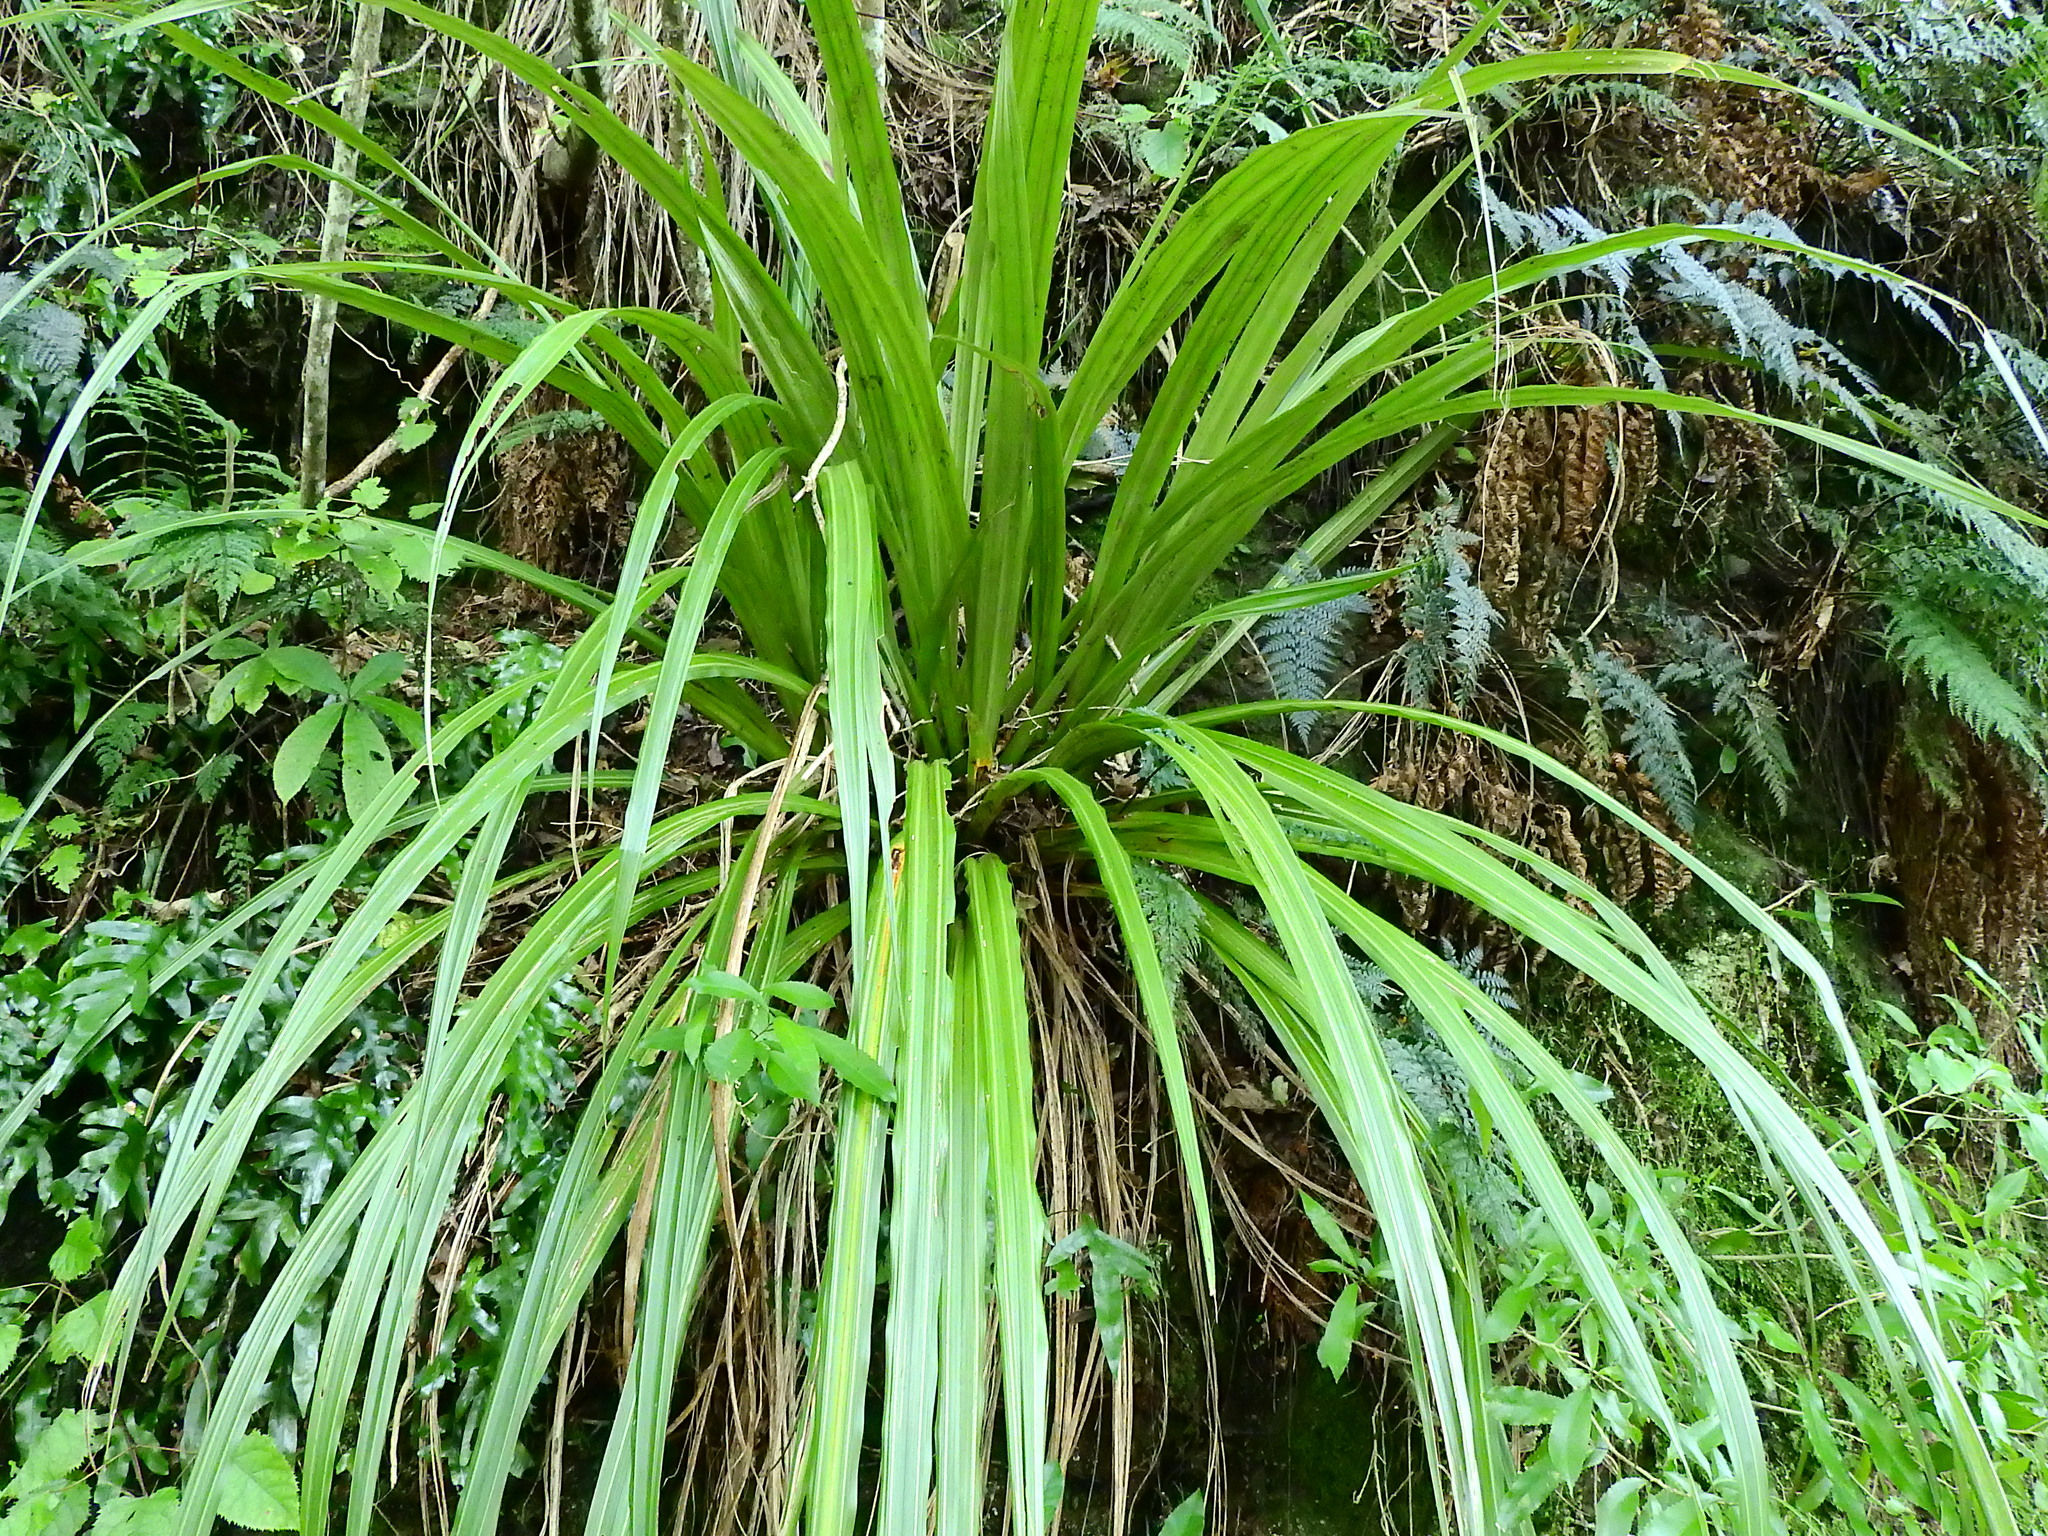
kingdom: Plantae
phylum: Tracheophyta
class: Liliopsida
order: Asparagales
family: Asteliaceae
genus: Astelia
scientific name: Astelia fragrans
